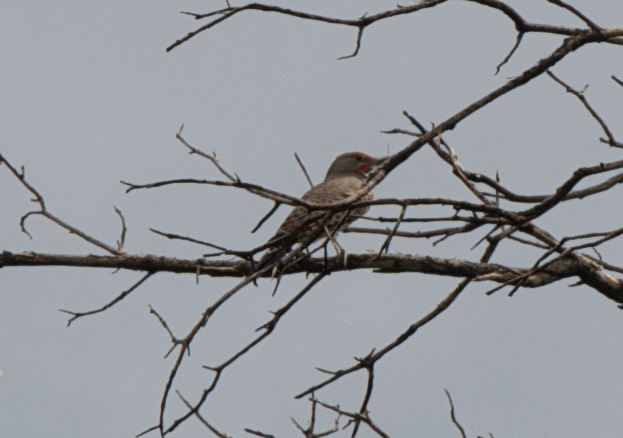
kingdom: Animalia
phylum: Chordata
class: Aves
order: Piciformes
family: Picidae
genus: Colaptes
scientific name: Colaptes auratus
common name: Northern flicker
